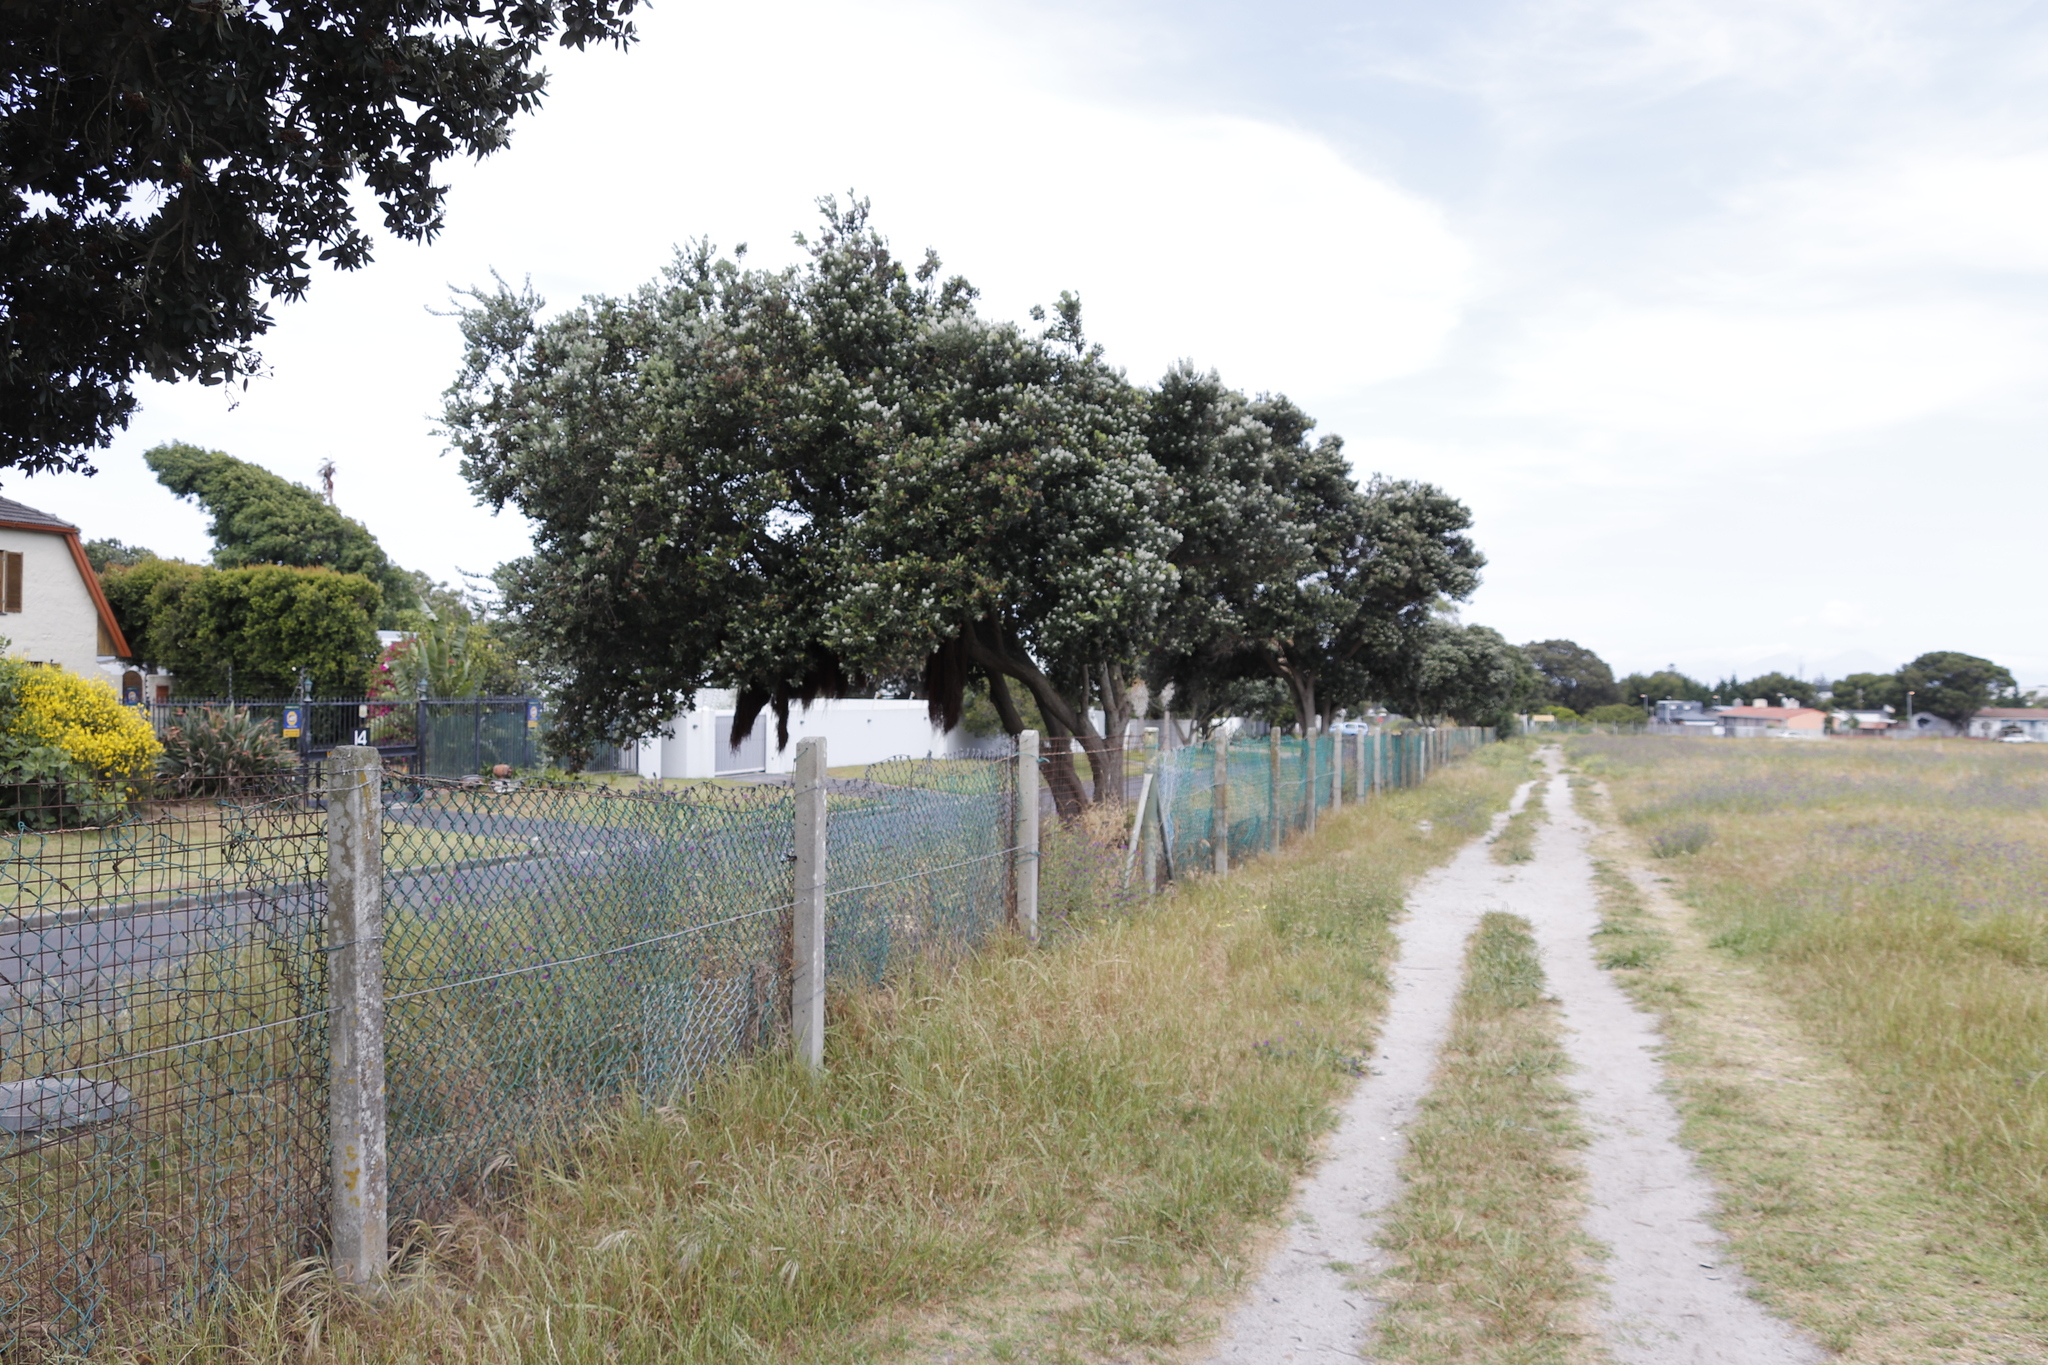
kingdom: Plantae
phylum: Tracheophyta
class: Magnoliopsida
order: Apiales
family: Apiaceae
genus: Foeniculum
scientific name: Foeniculum vulgare
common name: Fennel
